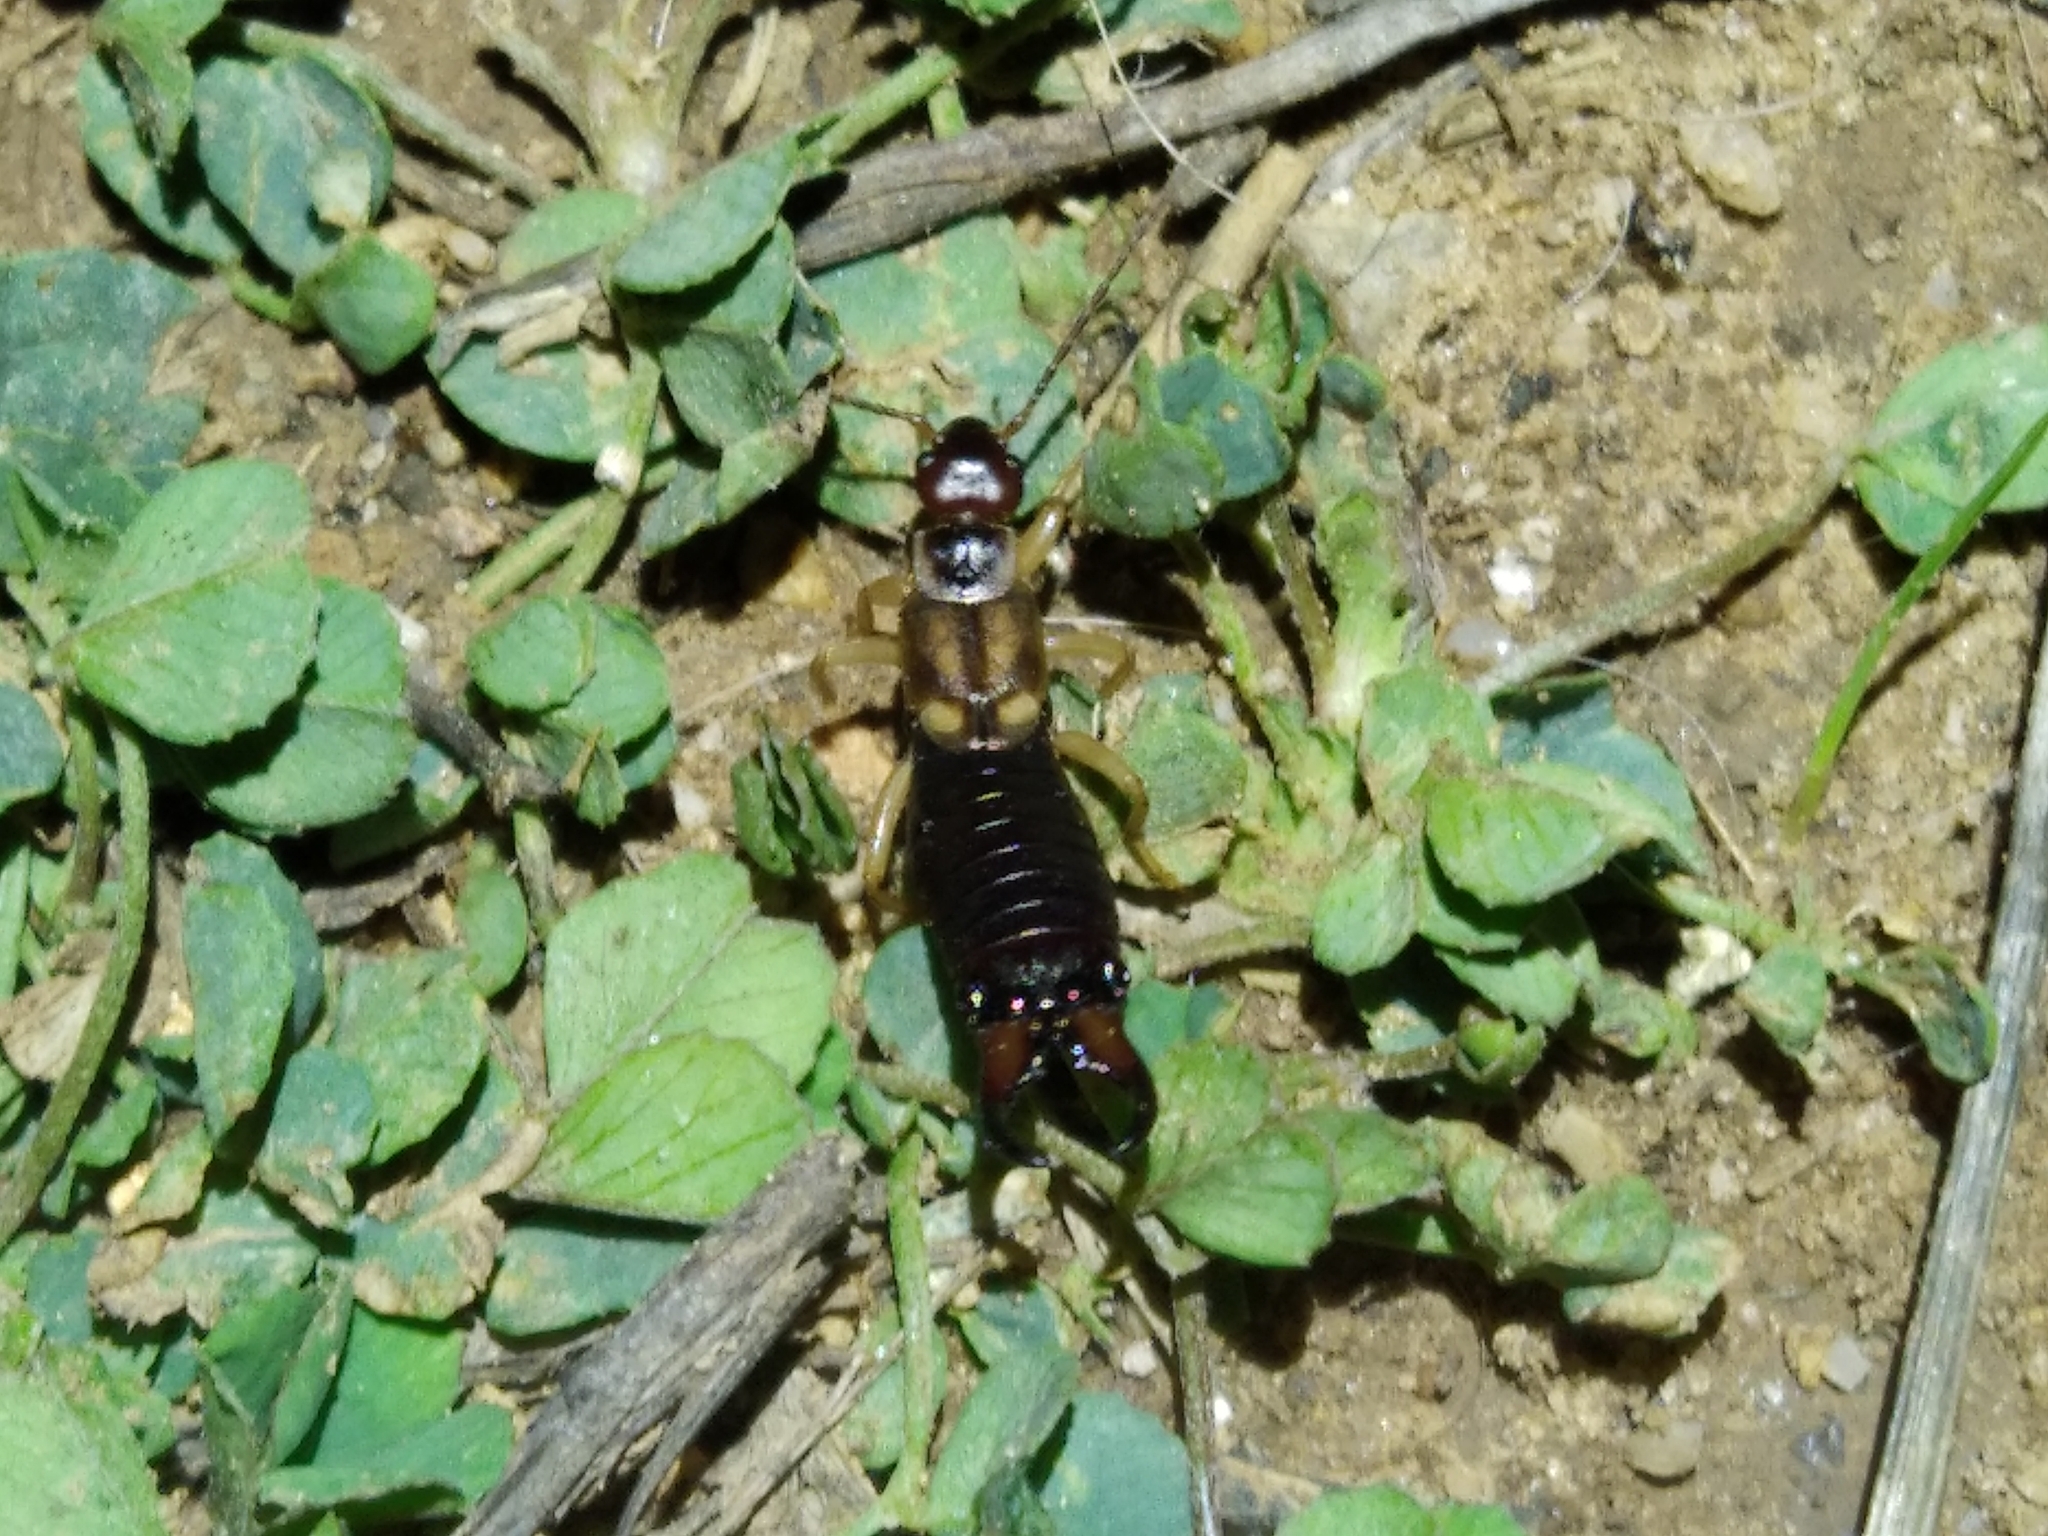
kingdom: Animalia
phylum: Arthropoda
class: Insecta
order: Dermaptera
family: Forficulidae
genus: Forficula
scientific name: Forficula
